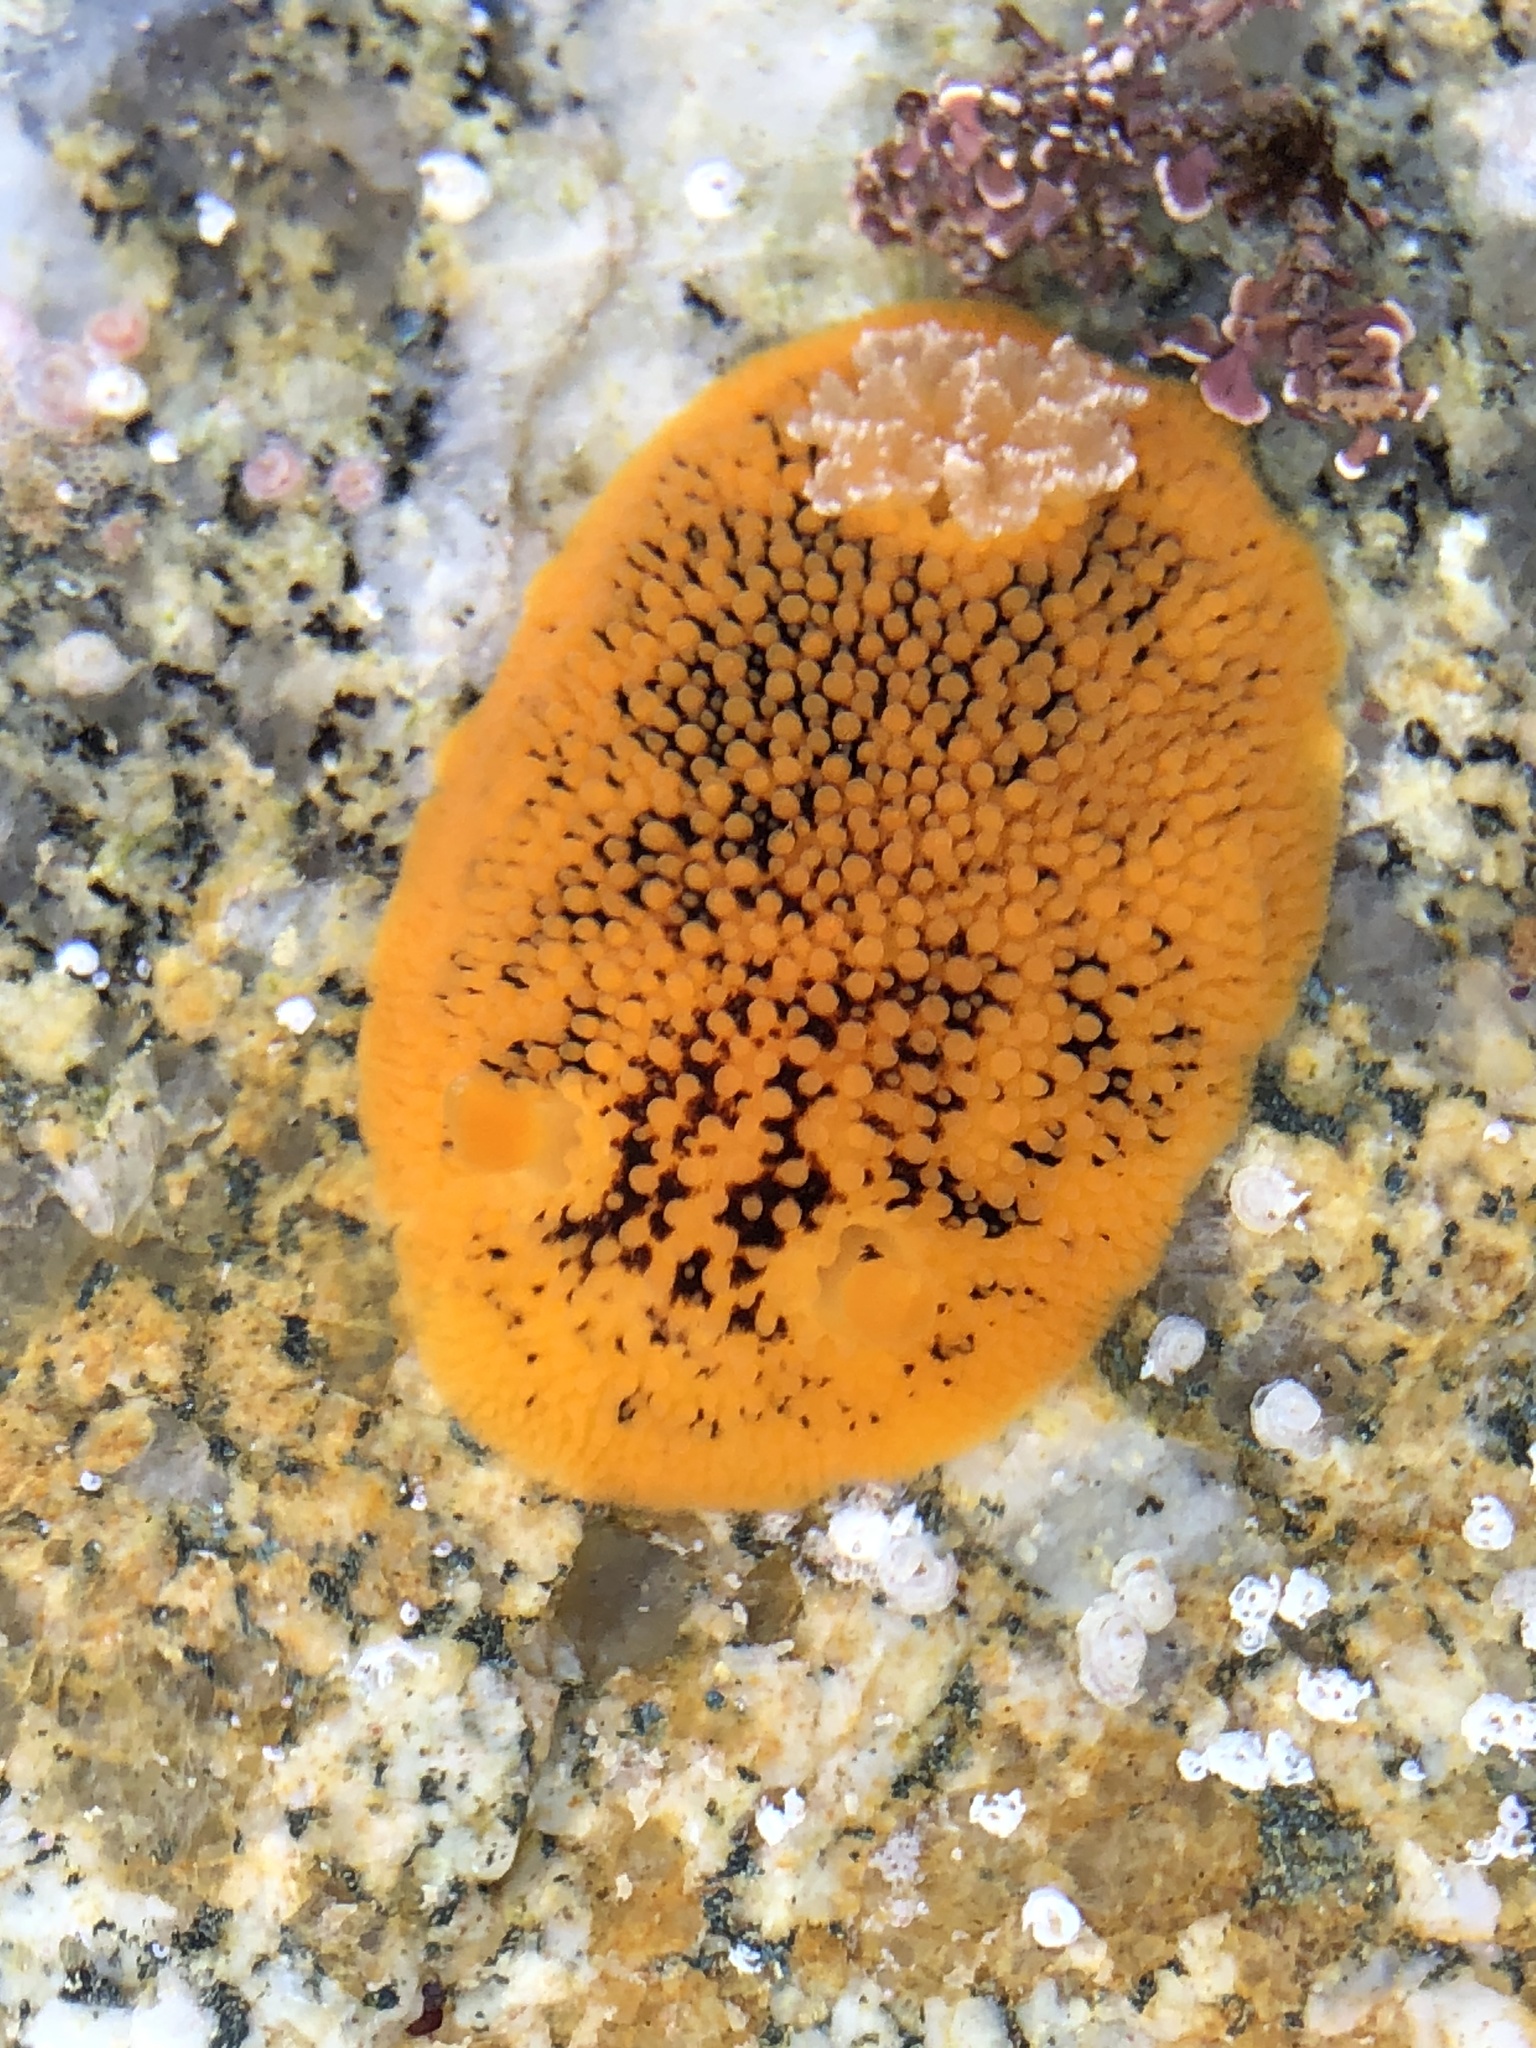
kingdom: Animalia
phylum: Mollusca
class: Gastropoda
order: Nudibranchia
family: Discodorididae
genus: Peltodoris
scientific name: Peltodoris nobilis
